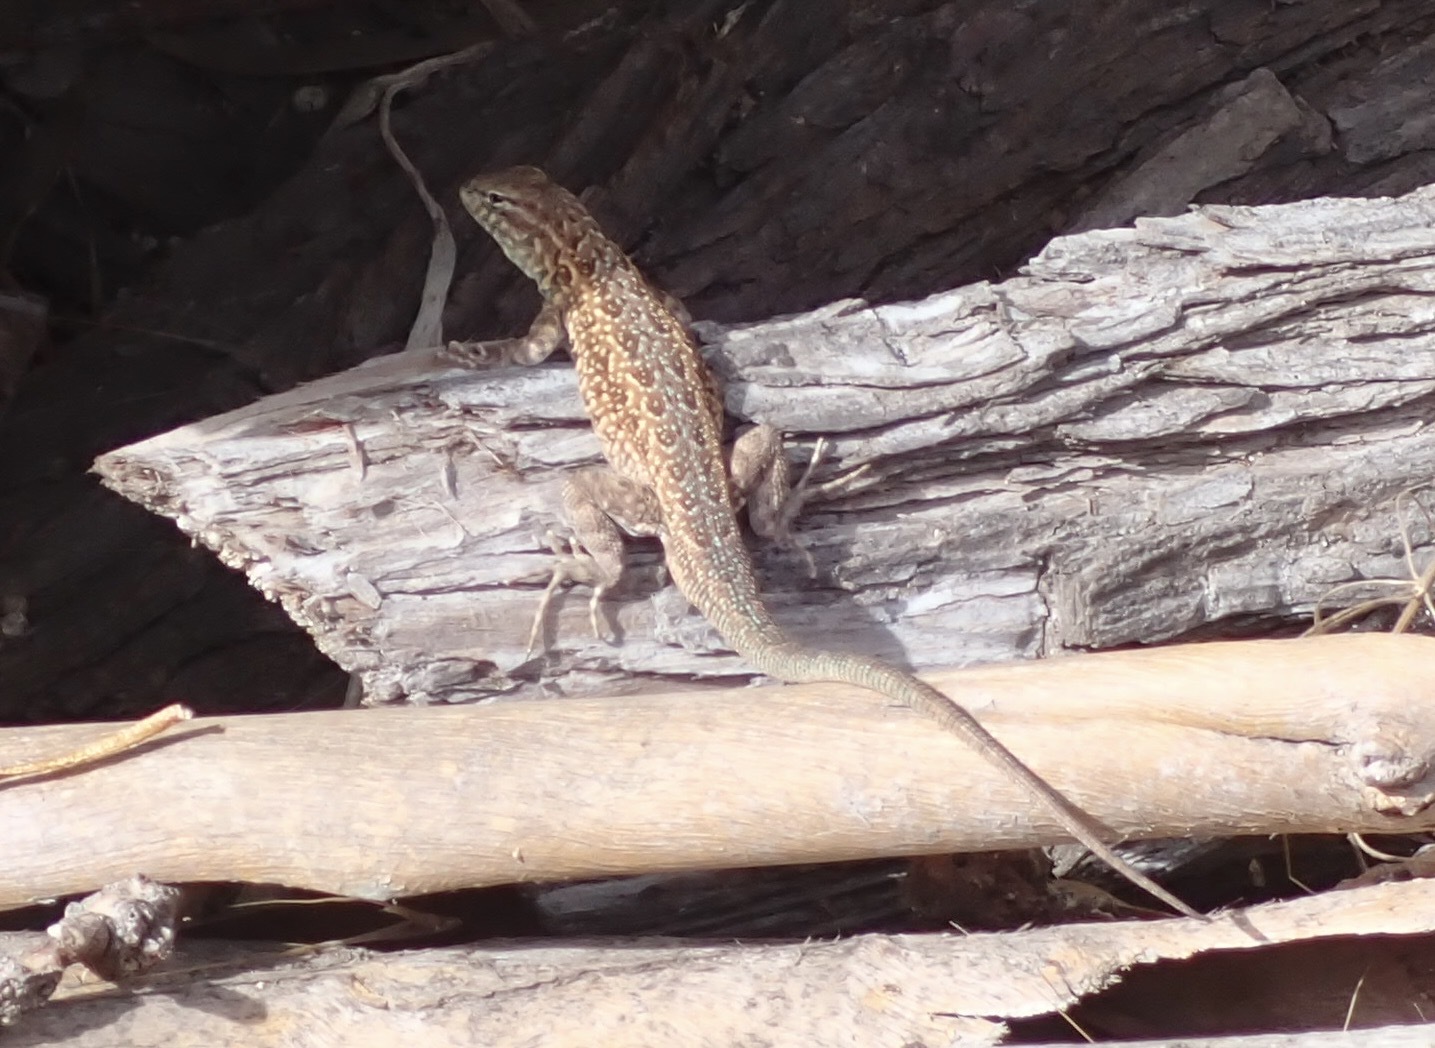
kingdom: Animalia
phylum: Chordata
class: Squamata
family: Phrynosomatidae
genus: Uta
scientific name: Uta stansburiana
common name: Side-blotched lizard
